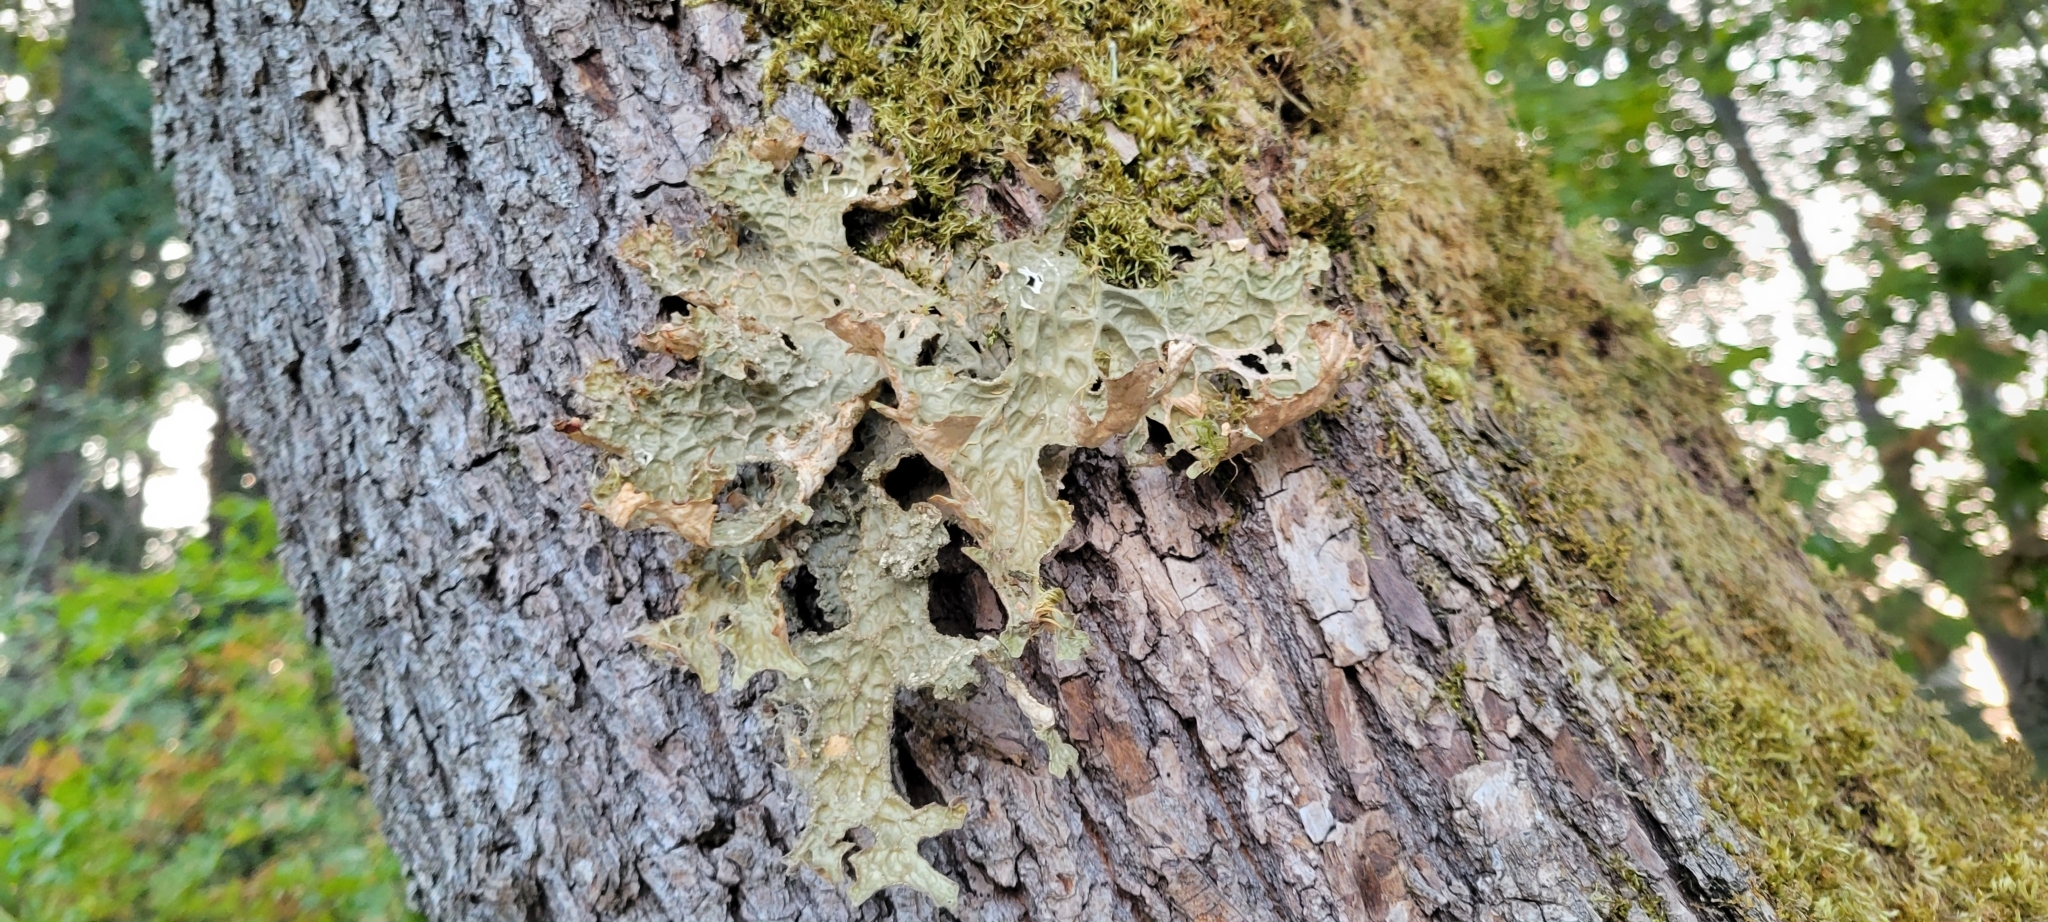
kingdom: Fungi
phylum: Ascomycota
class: Lecanoromycetes
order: Peltigerales
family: Lobariaceae
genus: Lobaria
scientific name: Lobaria pulmonaria
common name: Lungwort
